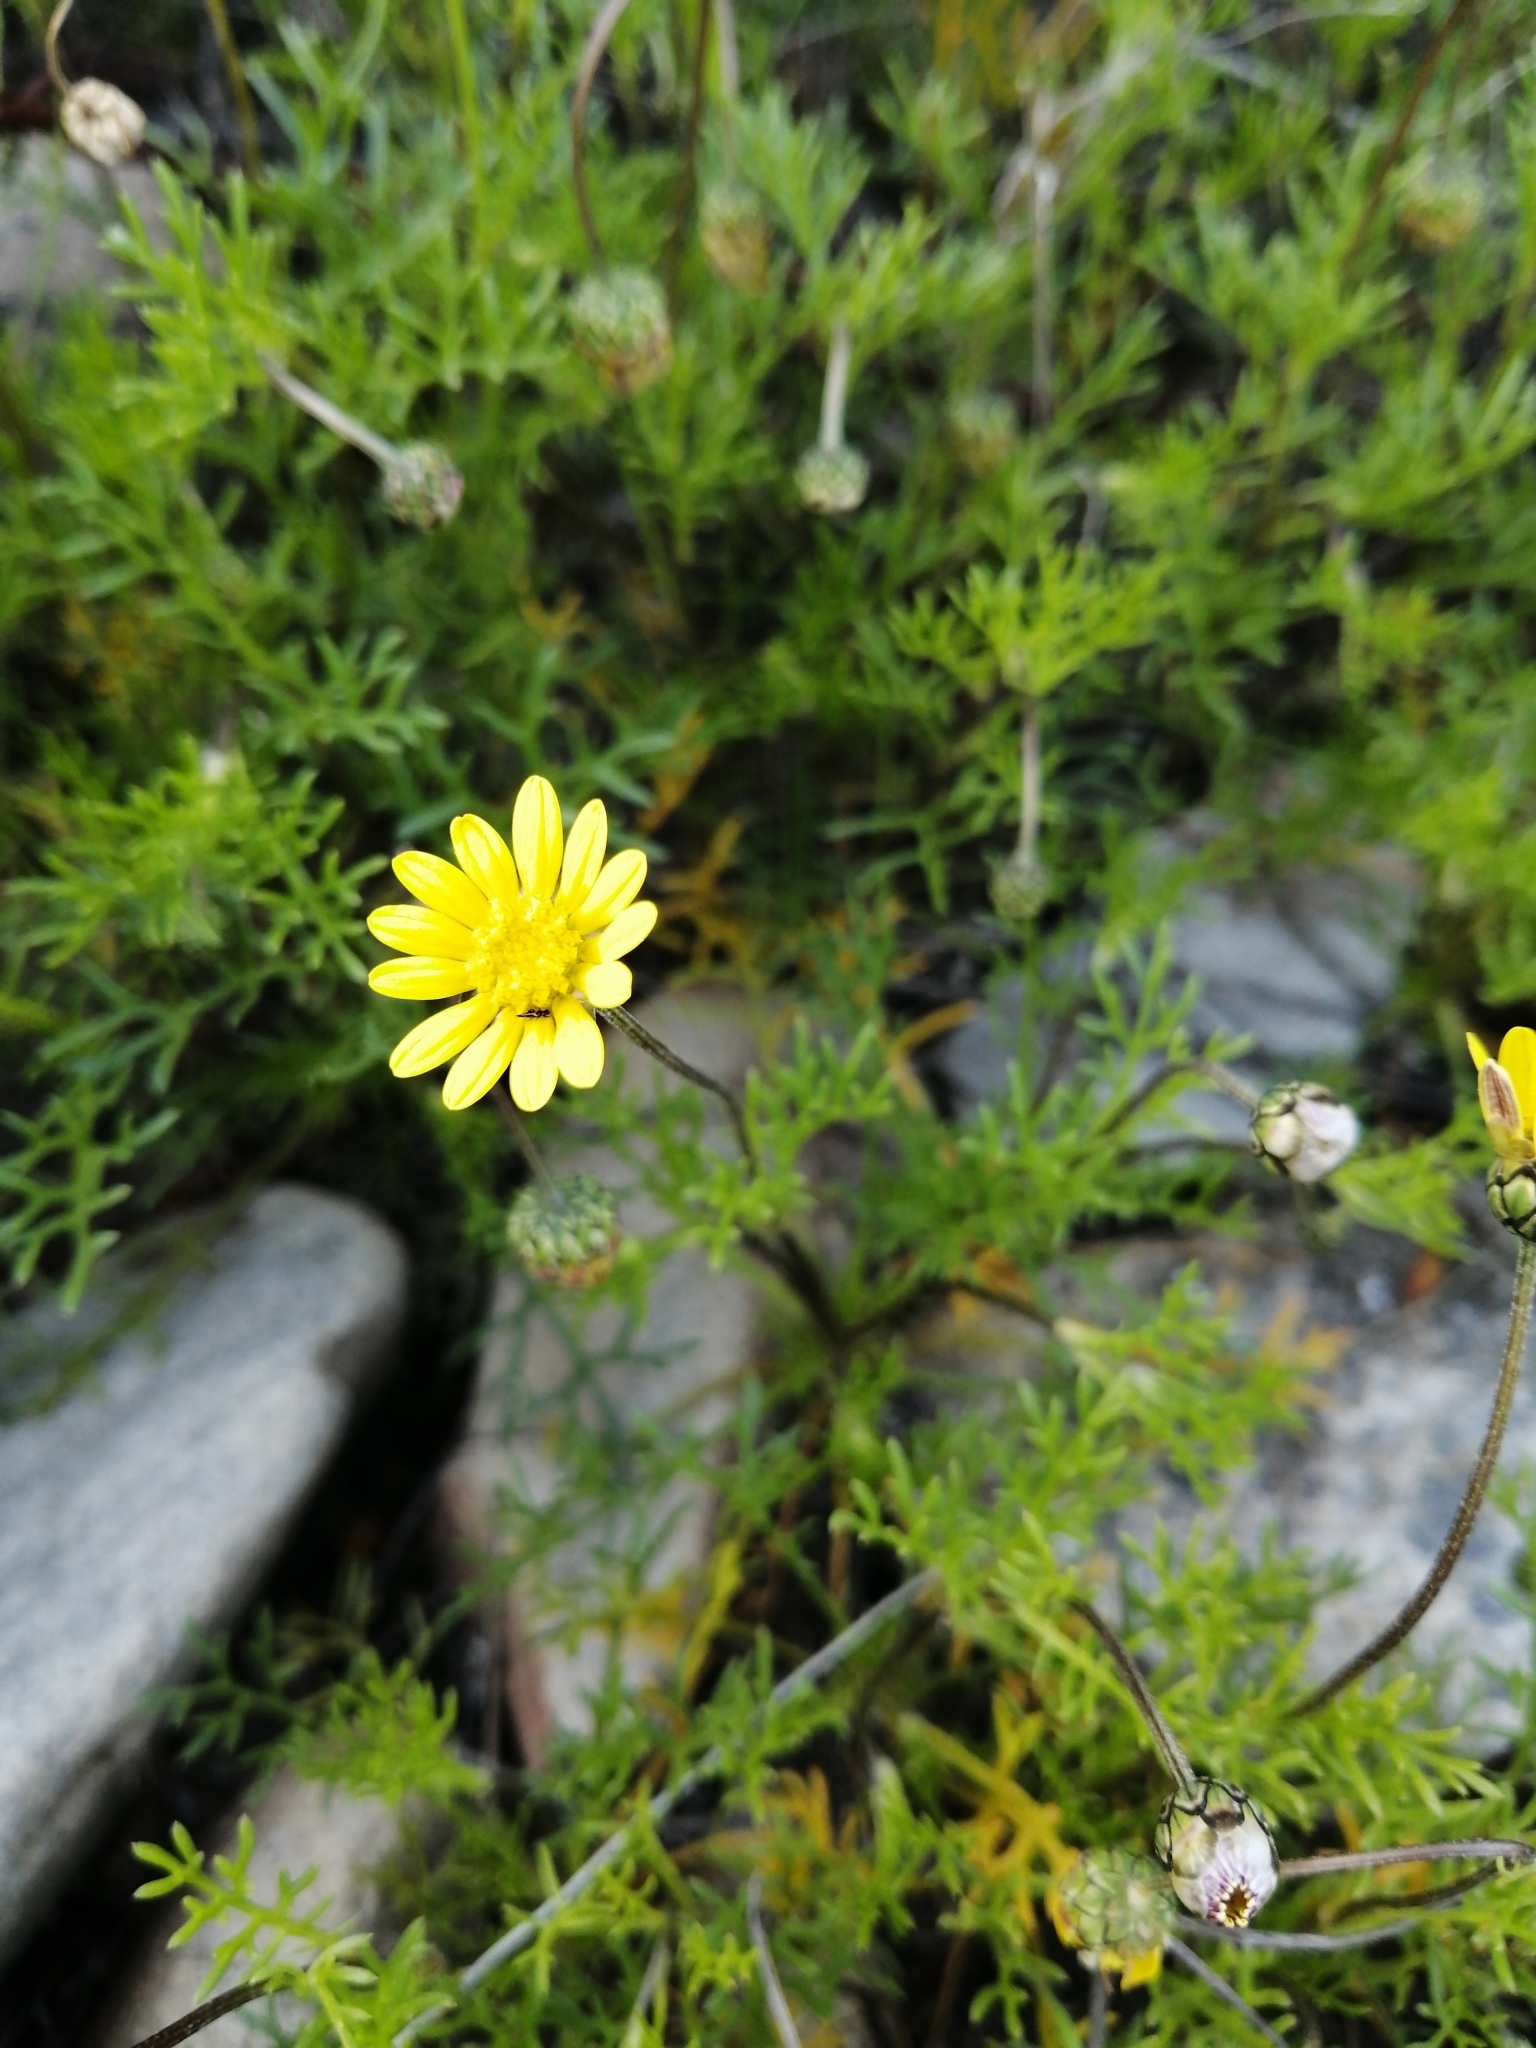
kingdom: Plantae
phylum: Tracheophyta
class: Magnoliopsida
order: Asterales
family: Asteraceae
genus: Ursinia
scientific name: Ursinia nana
